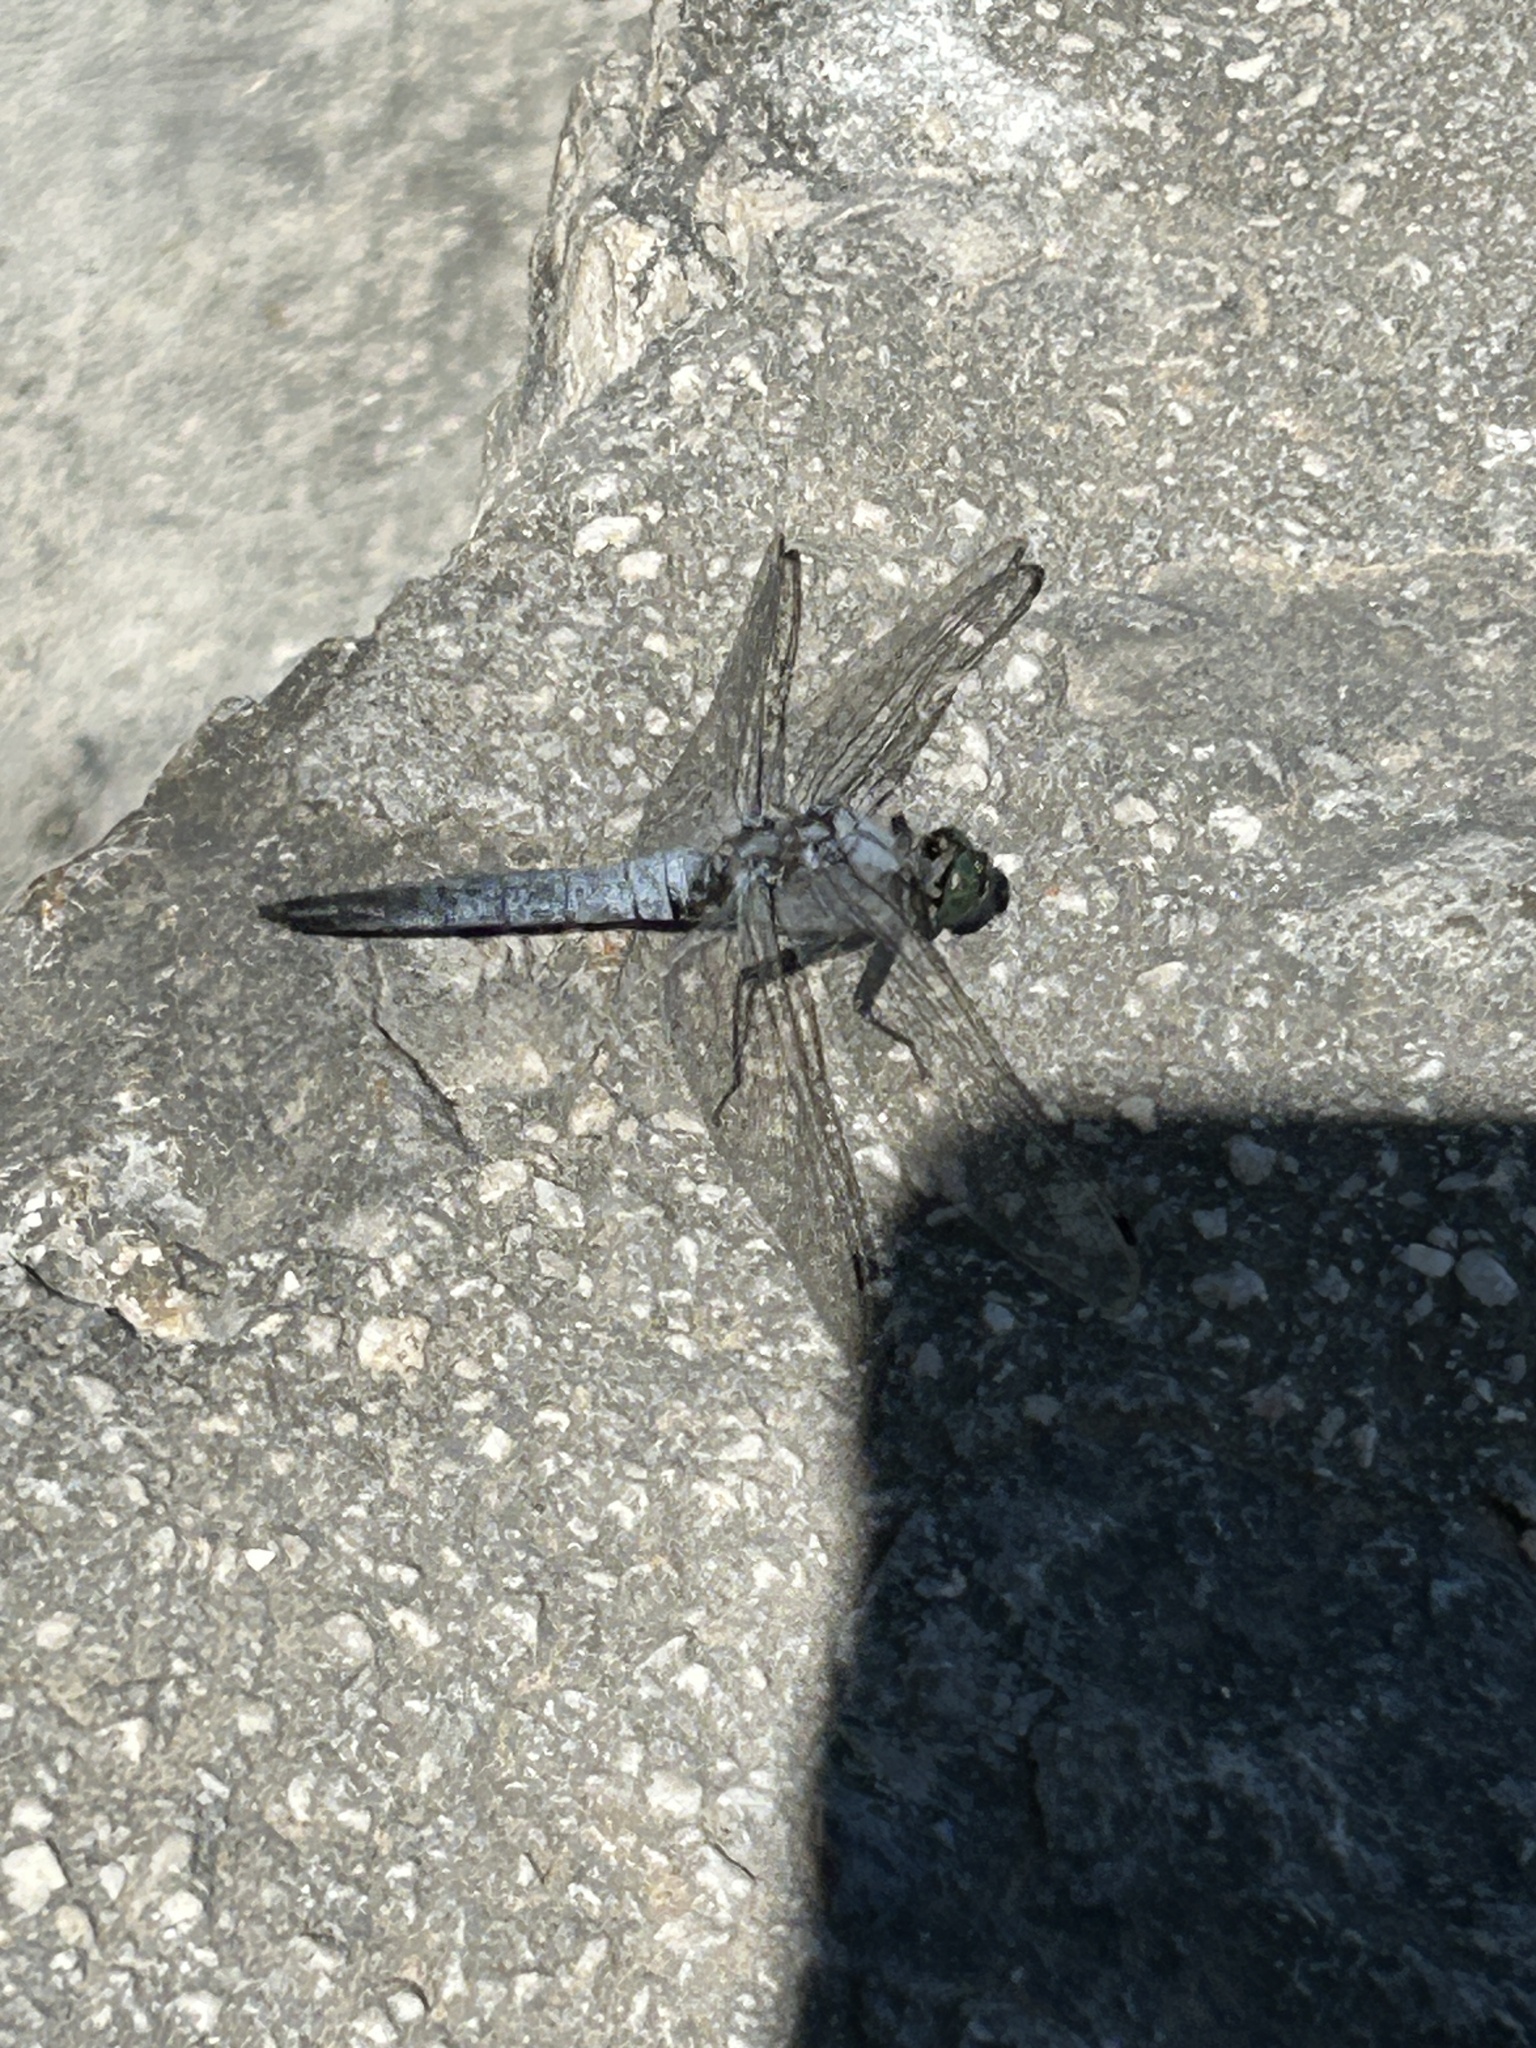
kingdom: Animalia
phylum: Arthropoda
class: Insecta
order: Odonata
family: Libellulidae
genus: Orthetrum
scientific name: Orthetrum cancellatum
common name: Black-tailed skimmer
